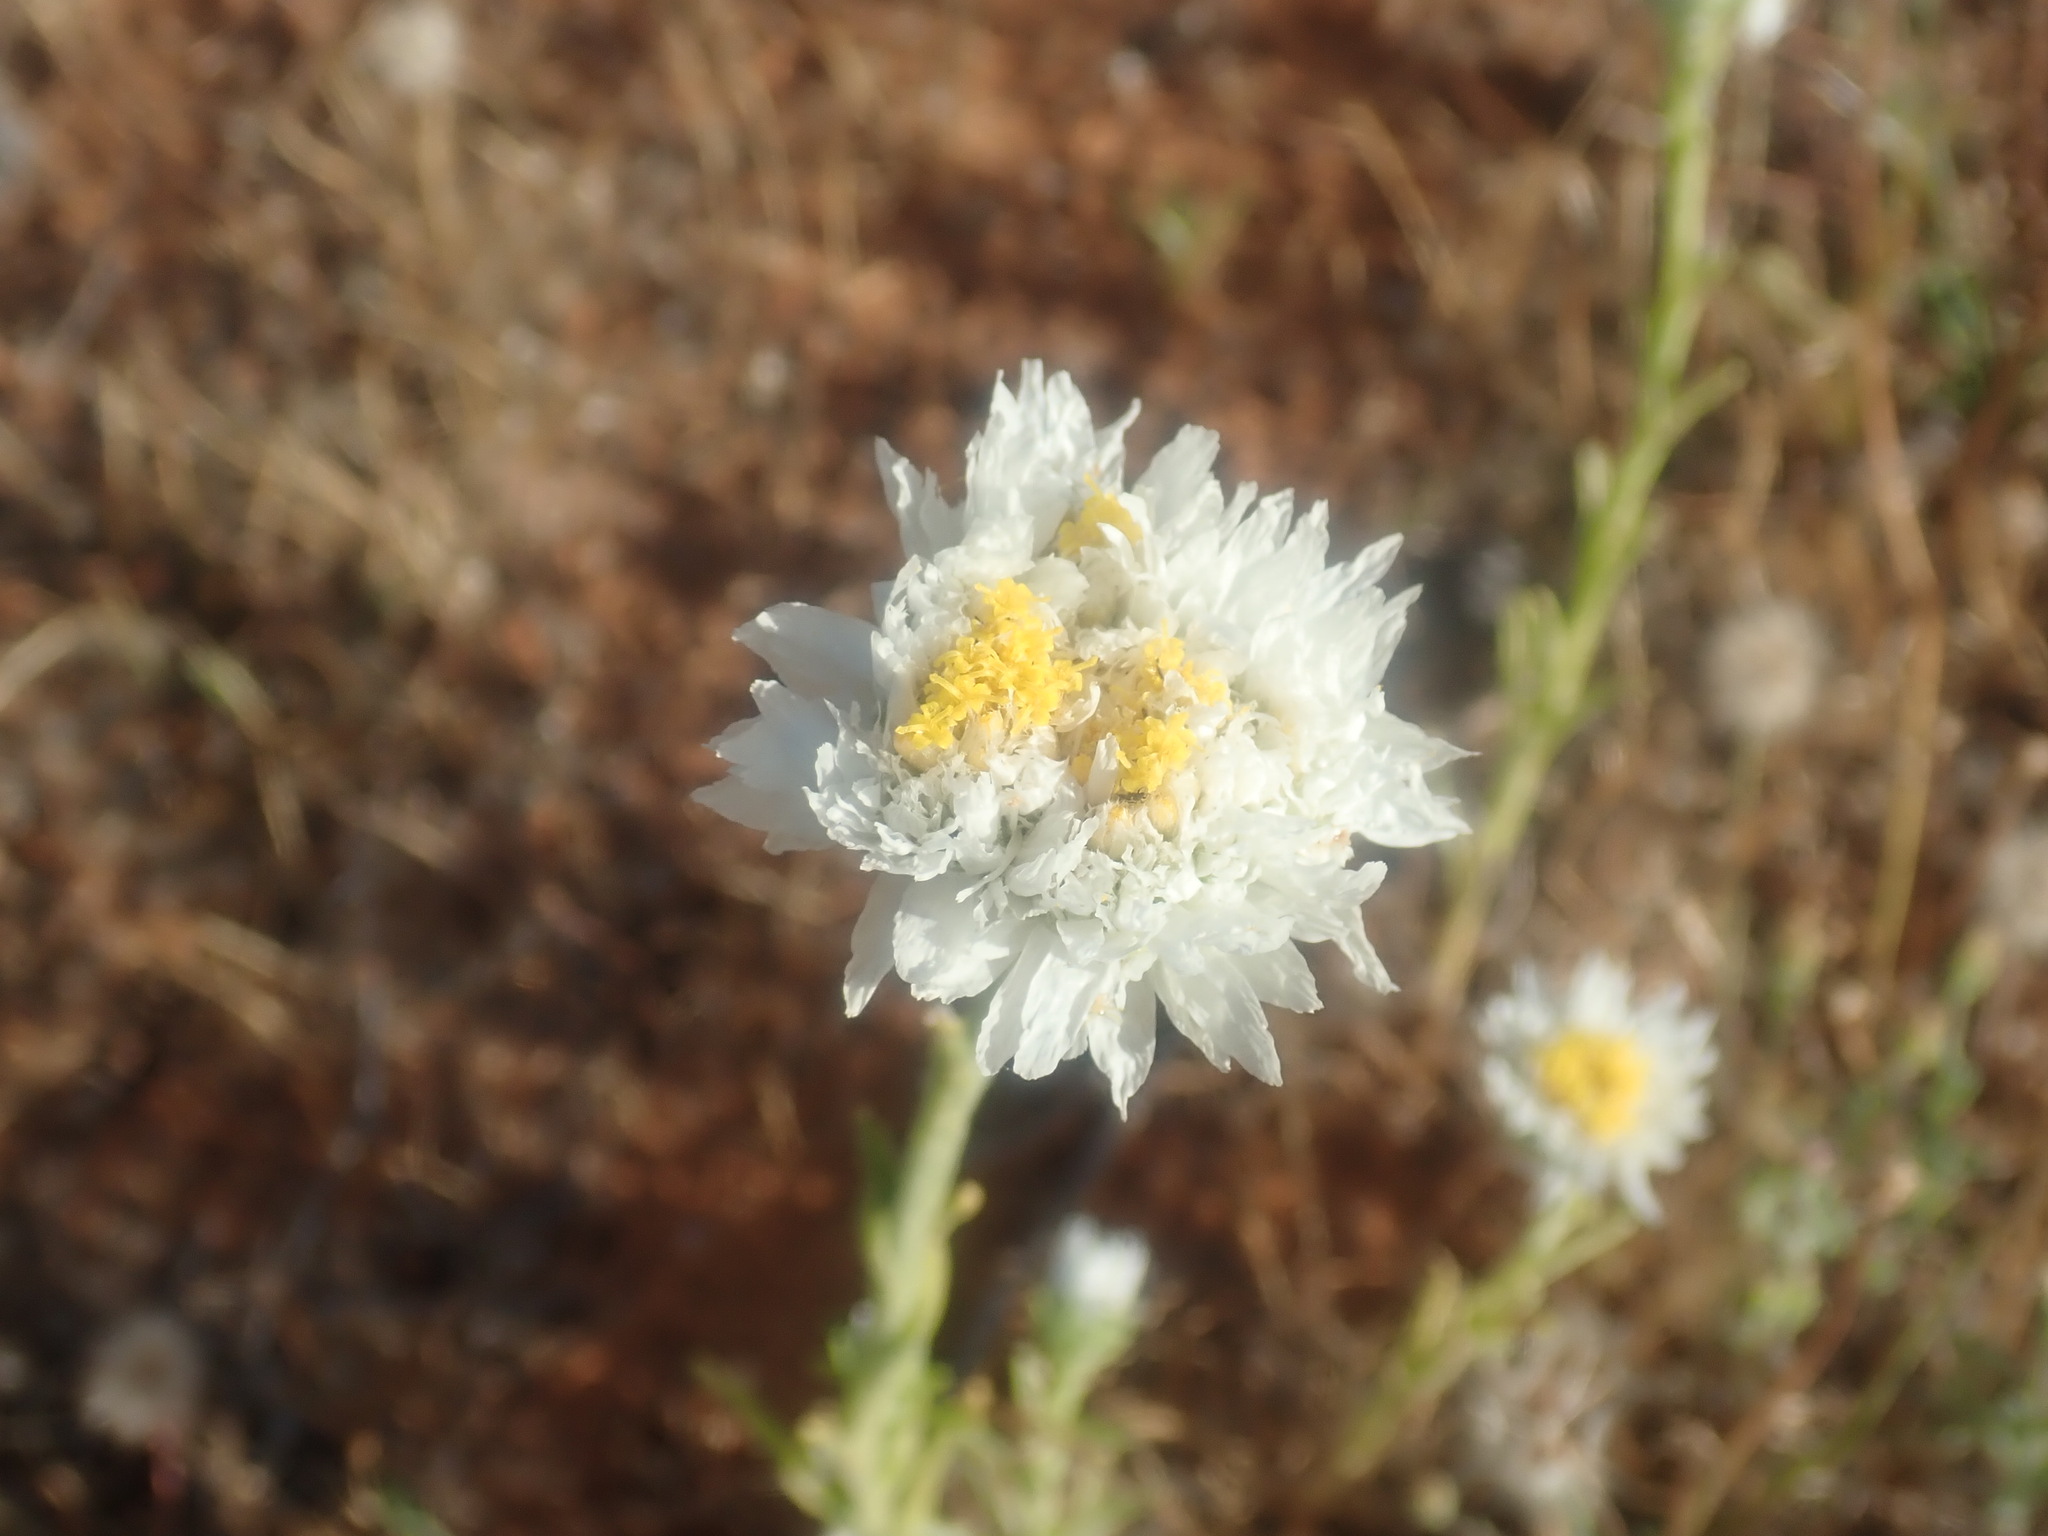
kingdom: Plantae
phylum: Tracheophyta
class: Magnoliopsida
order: Asterales
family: Asteraceae
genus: Polycalymma
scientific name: Polycalymma stuartii
